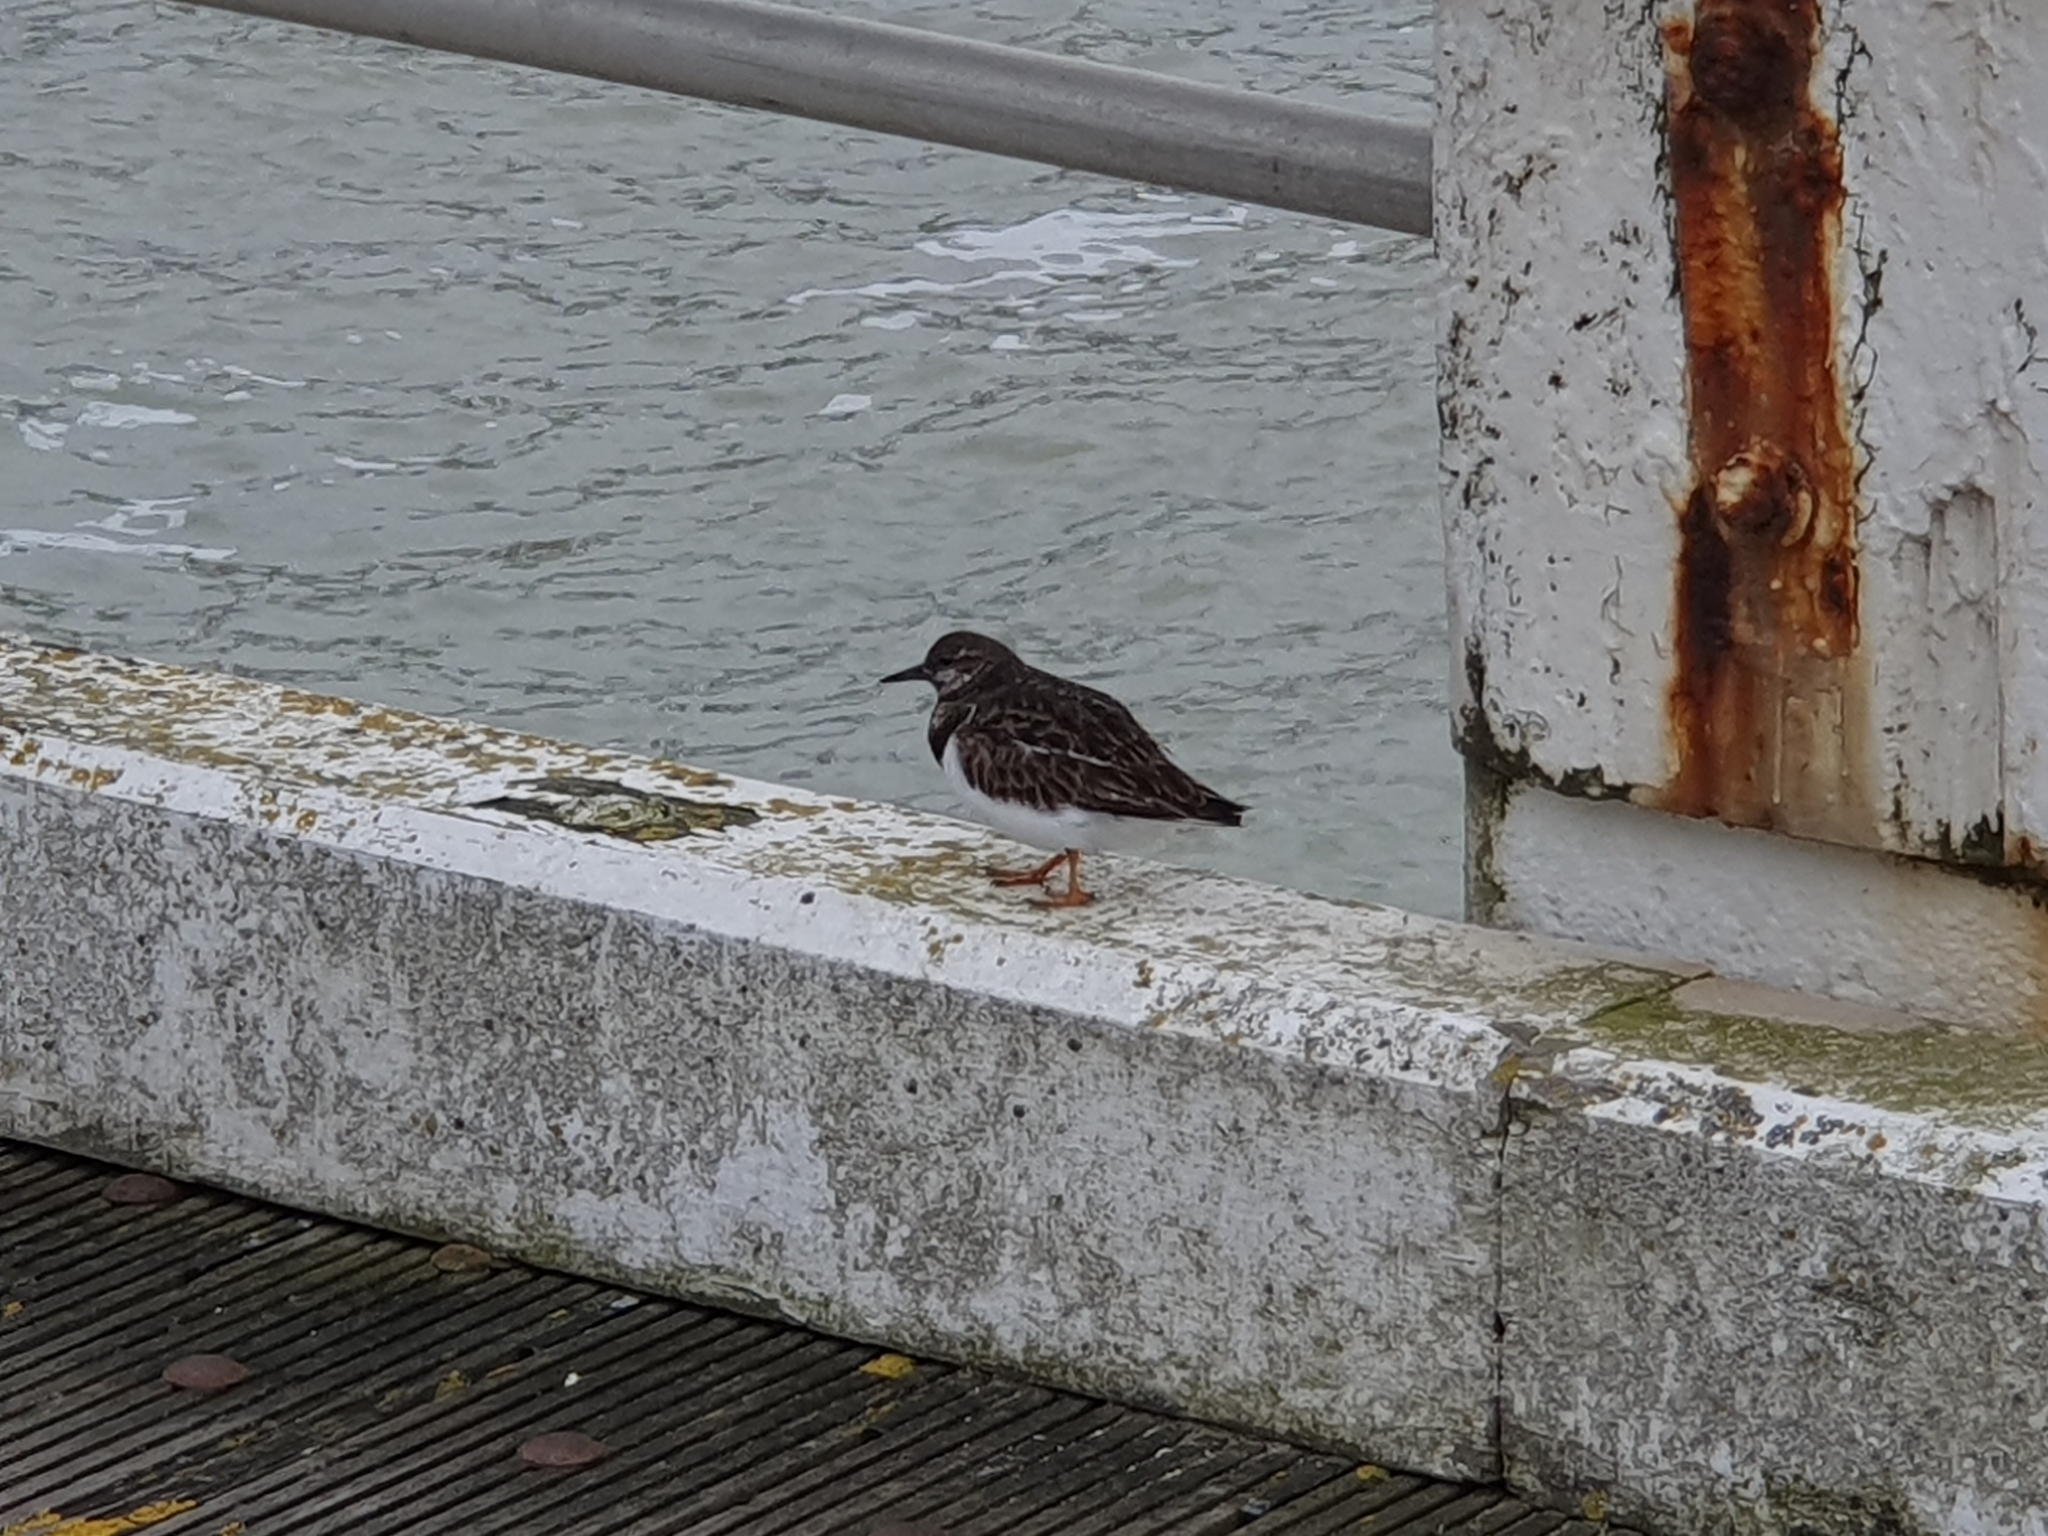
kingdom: Animalia
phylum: Chordata
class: Aves
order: Charadriiformes
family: Scolopacidae
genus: Arenaria
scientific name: Arenaria interpres
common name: Ruddy turnstone
